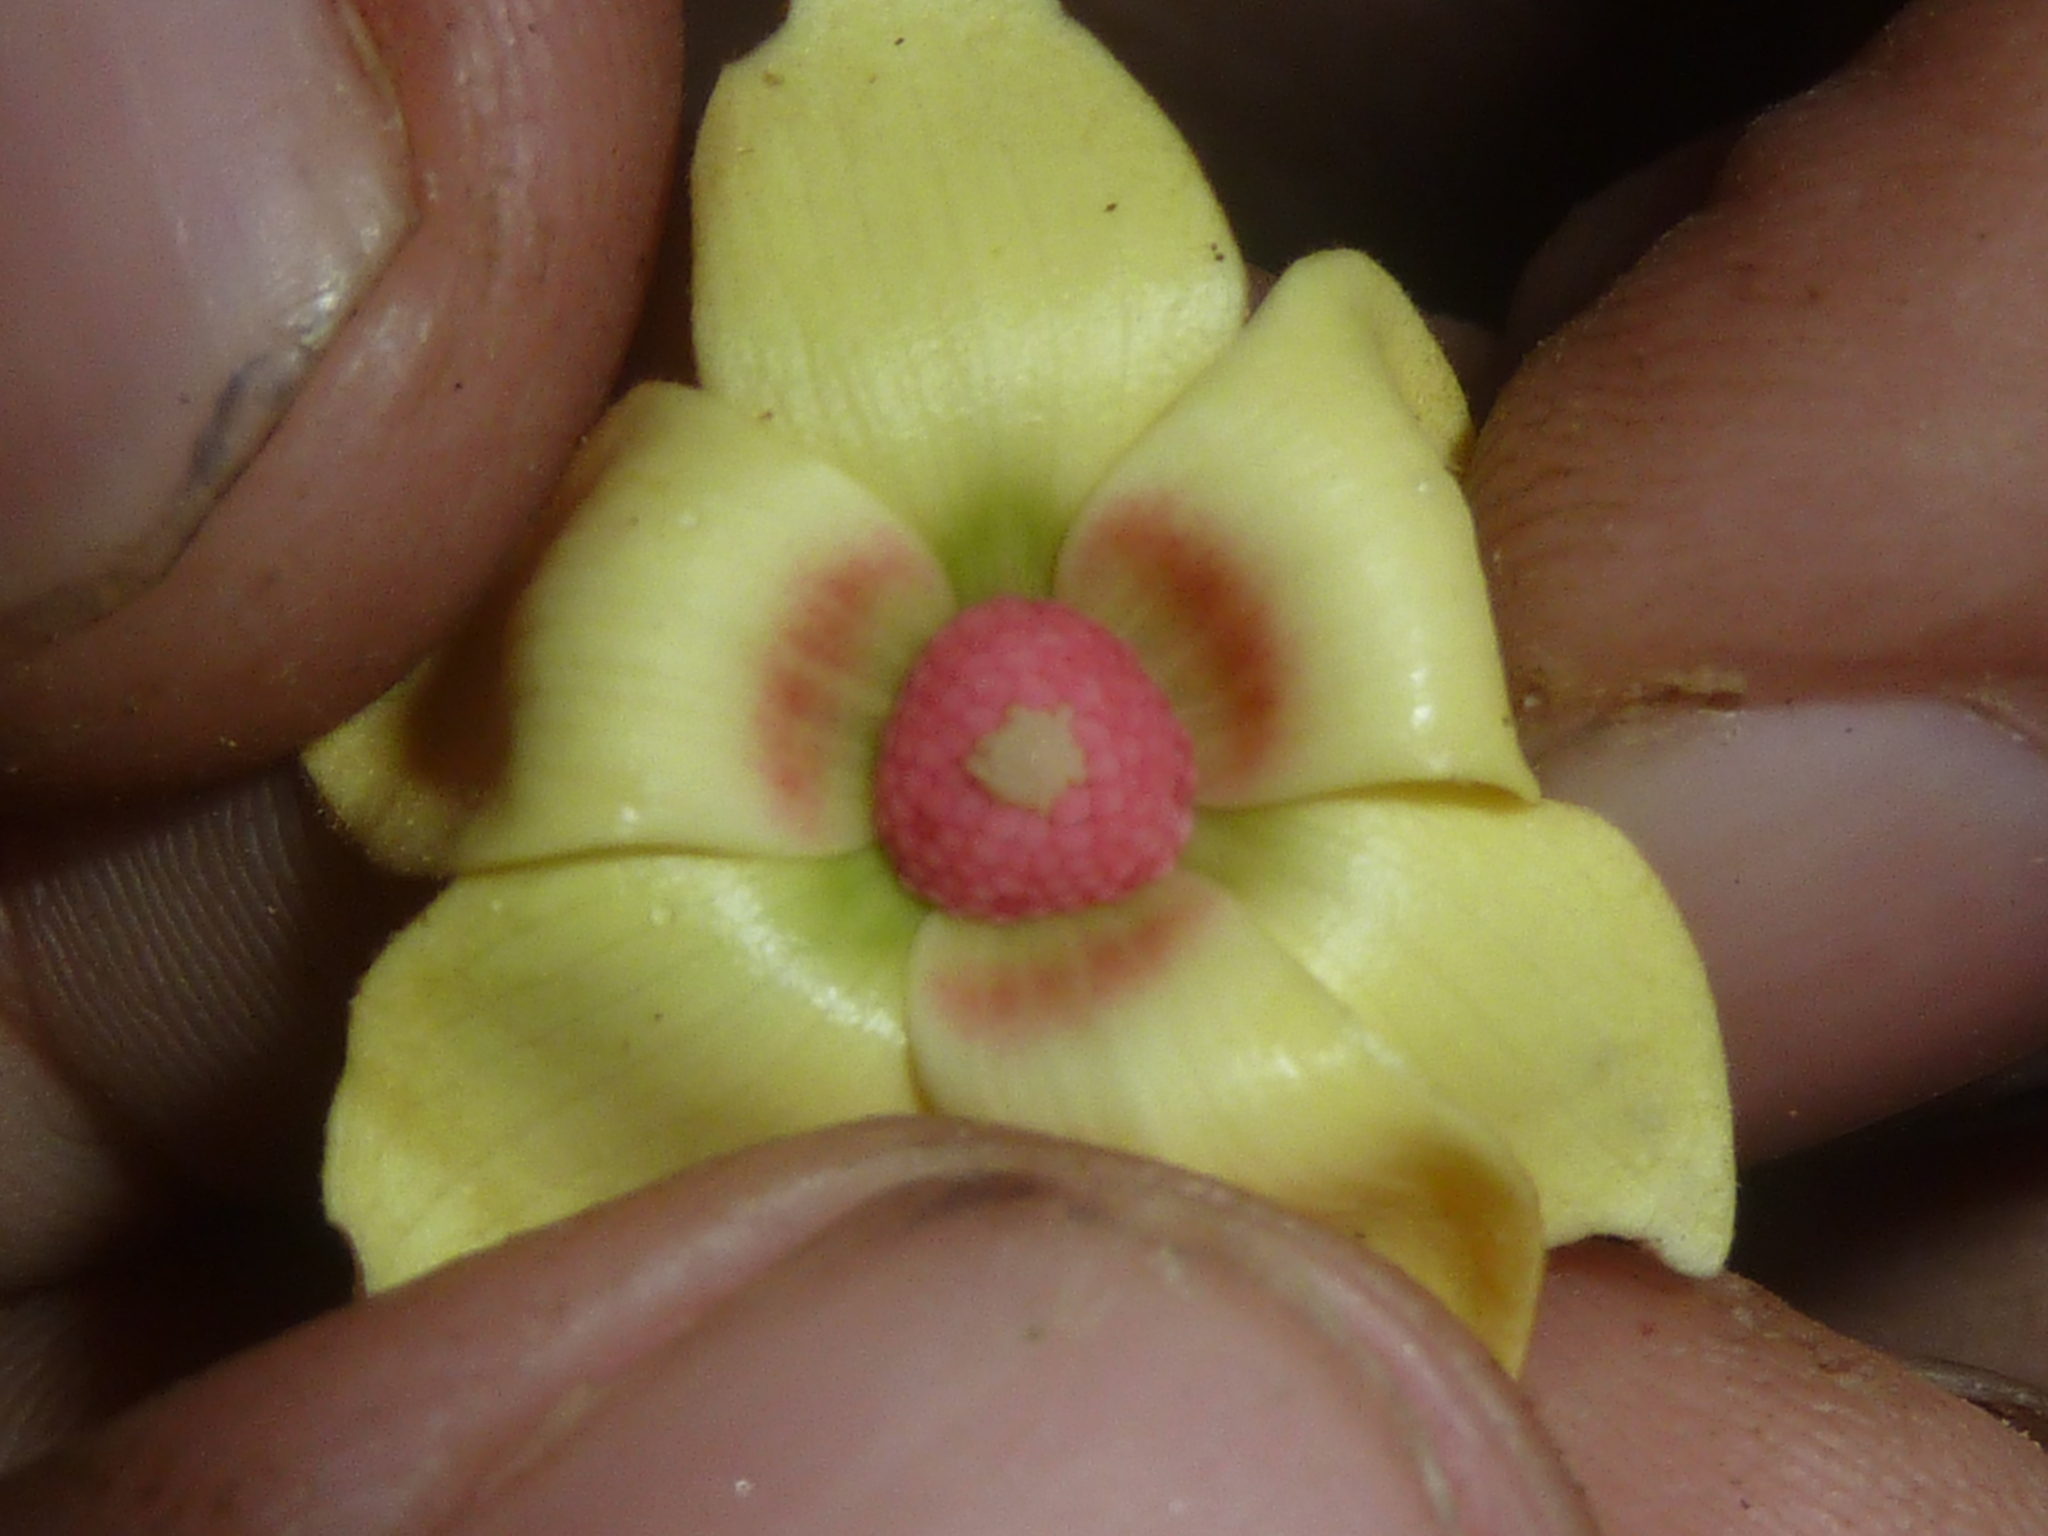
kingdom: Plantae
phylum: Tracheophyta
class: Magnoliopsida
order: Magnoliales
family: Annonaceae
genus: Duguetia
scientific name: Duguetia confusa
